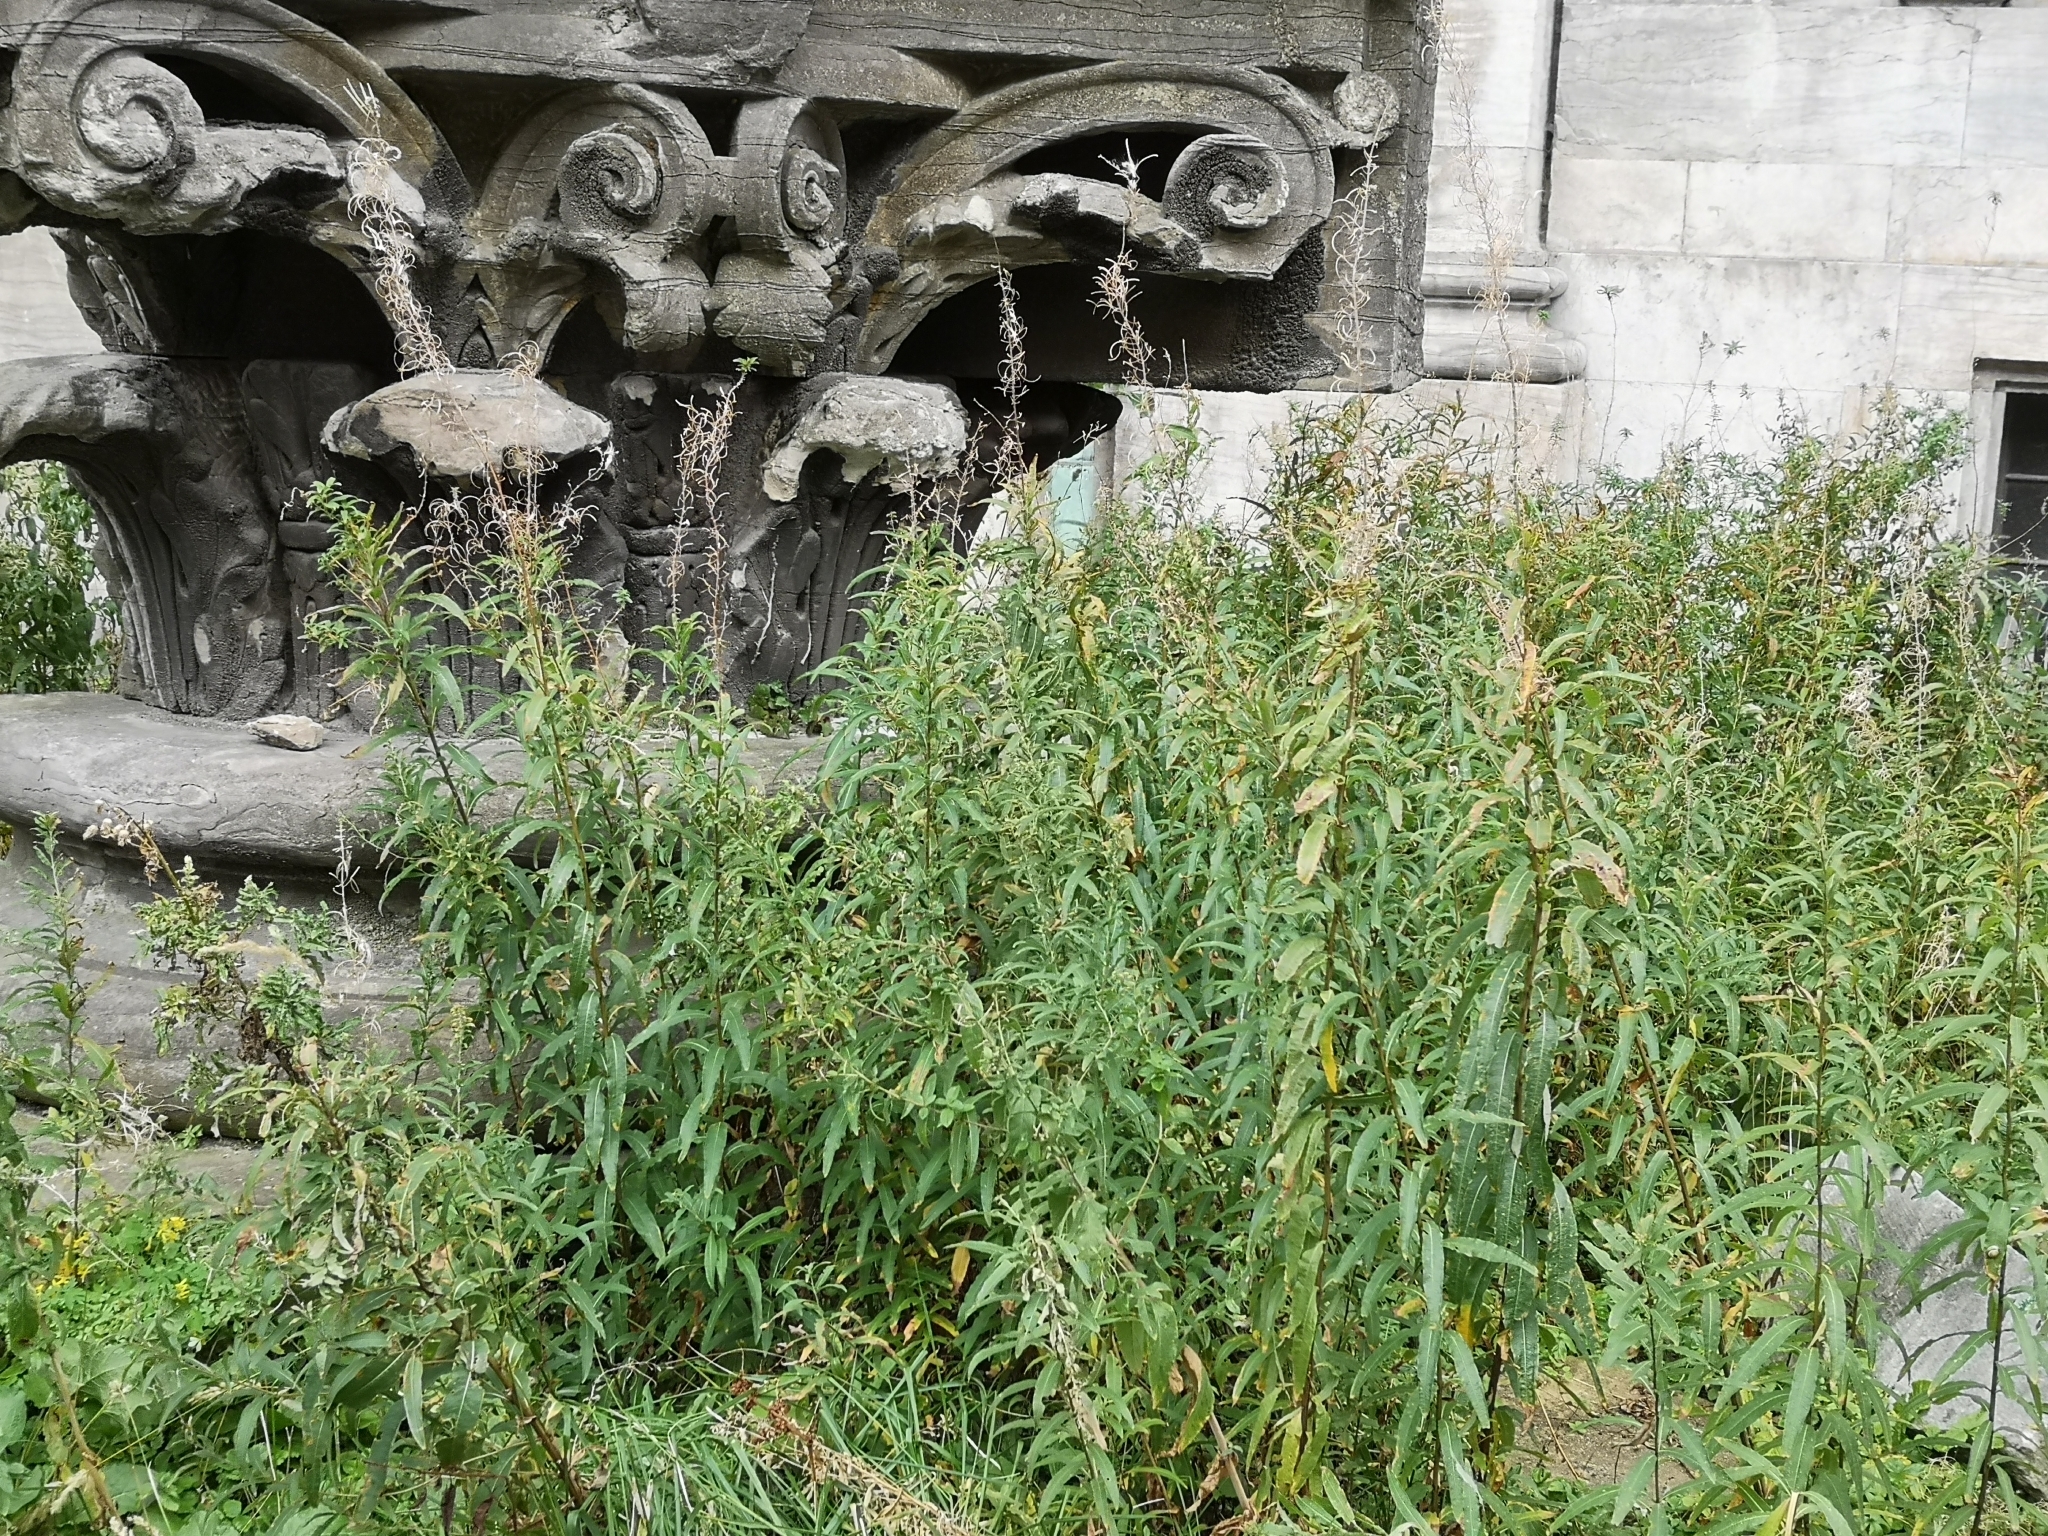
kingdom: Plantae
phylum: Tracheophyta
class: Magnoliopsida
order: Myrtales
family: Onagraceae
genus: Chamaenerion
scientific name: Chamaenerion angustifolium
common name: Fireweed
